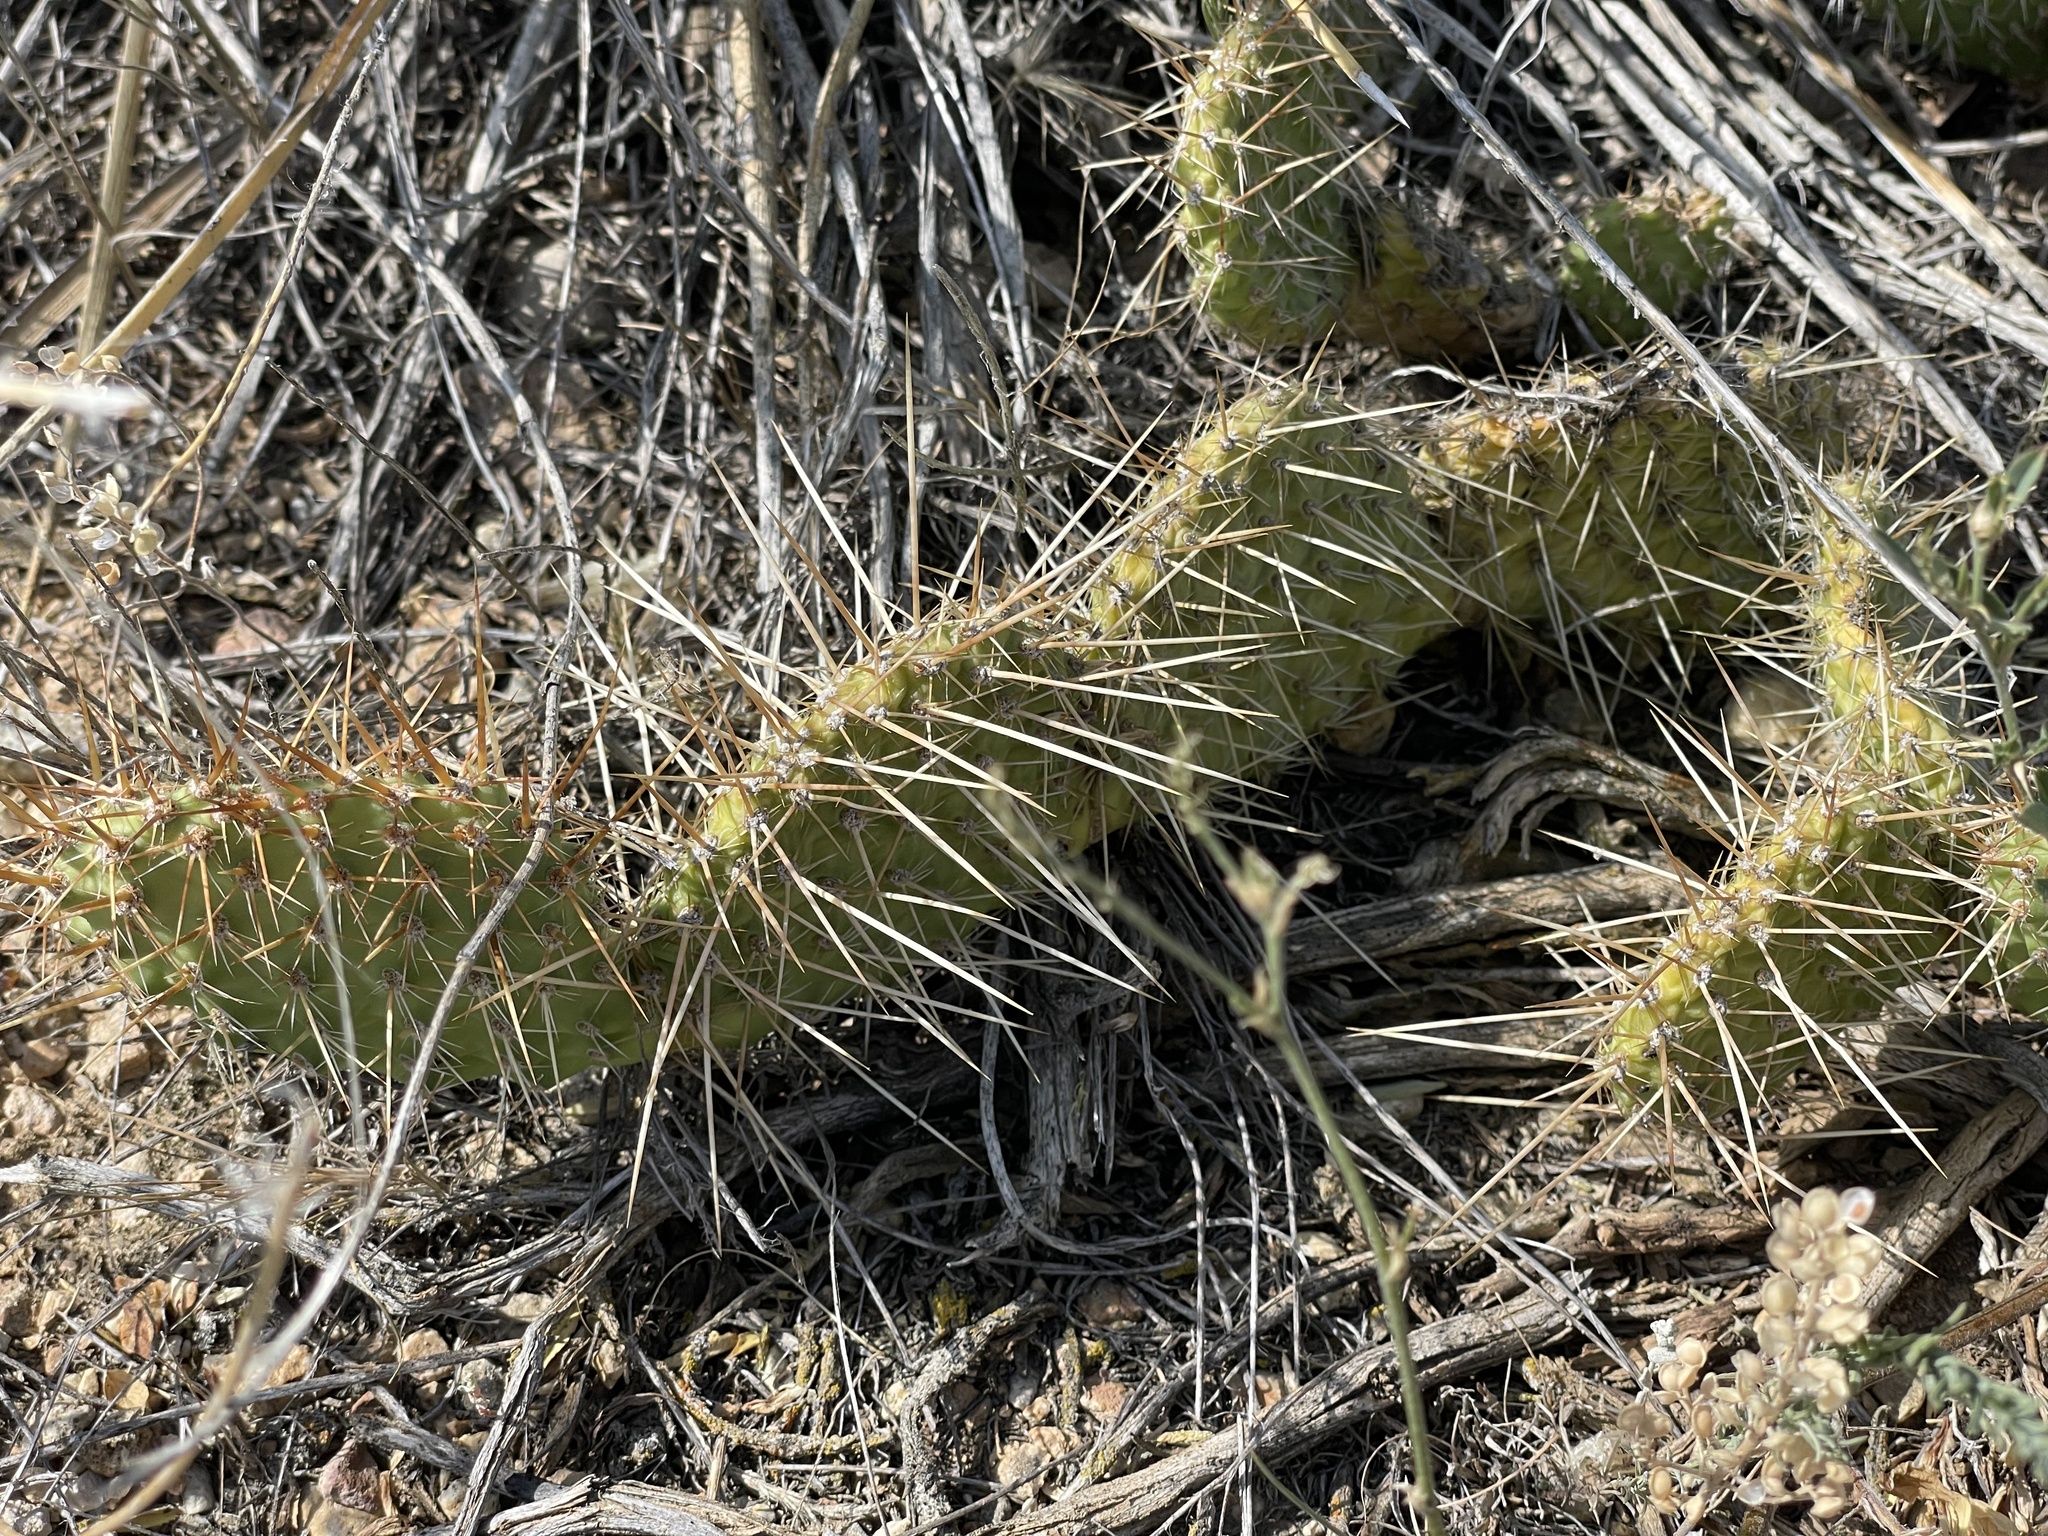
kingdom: Plantae
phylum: Tracheophyta
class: Magnoliopsida
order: Caryophyllales
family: Cactaceae
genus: Opuntia
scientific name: Opuntia polyacantha
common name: Plains prickly-pear
